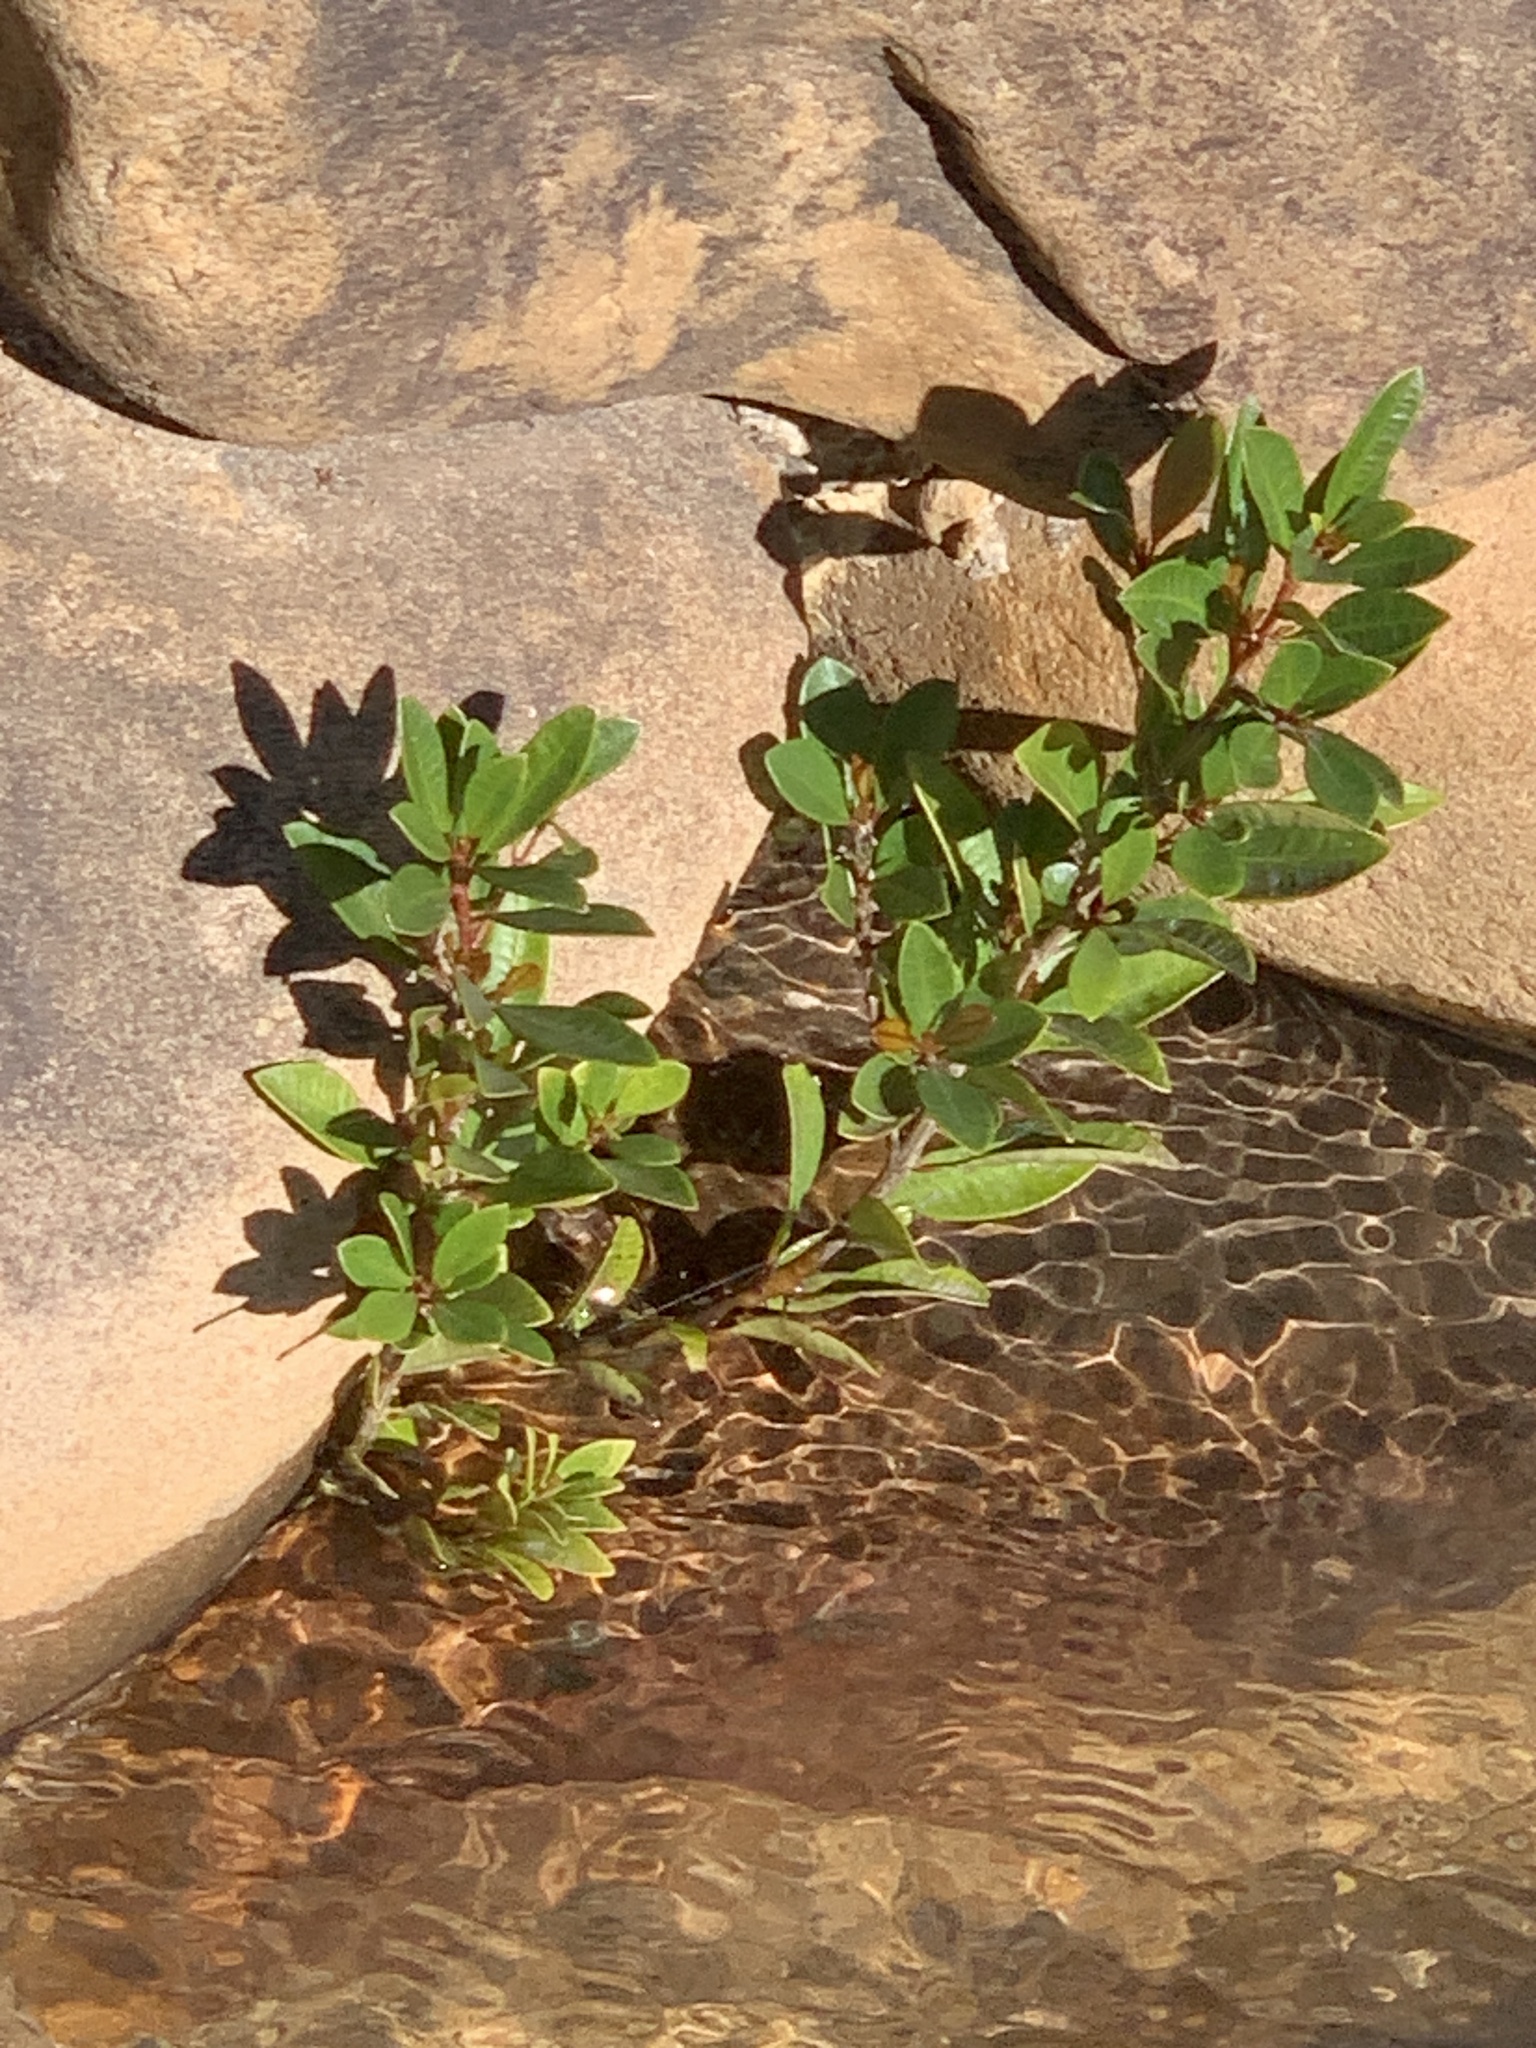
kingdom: Plantae
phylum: Tracheophyta
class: Magnoliopsida
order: Myrtales
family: Myrtaceae
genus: Syzygium
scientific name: Syzygium australe
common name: Australian brush-cherry
